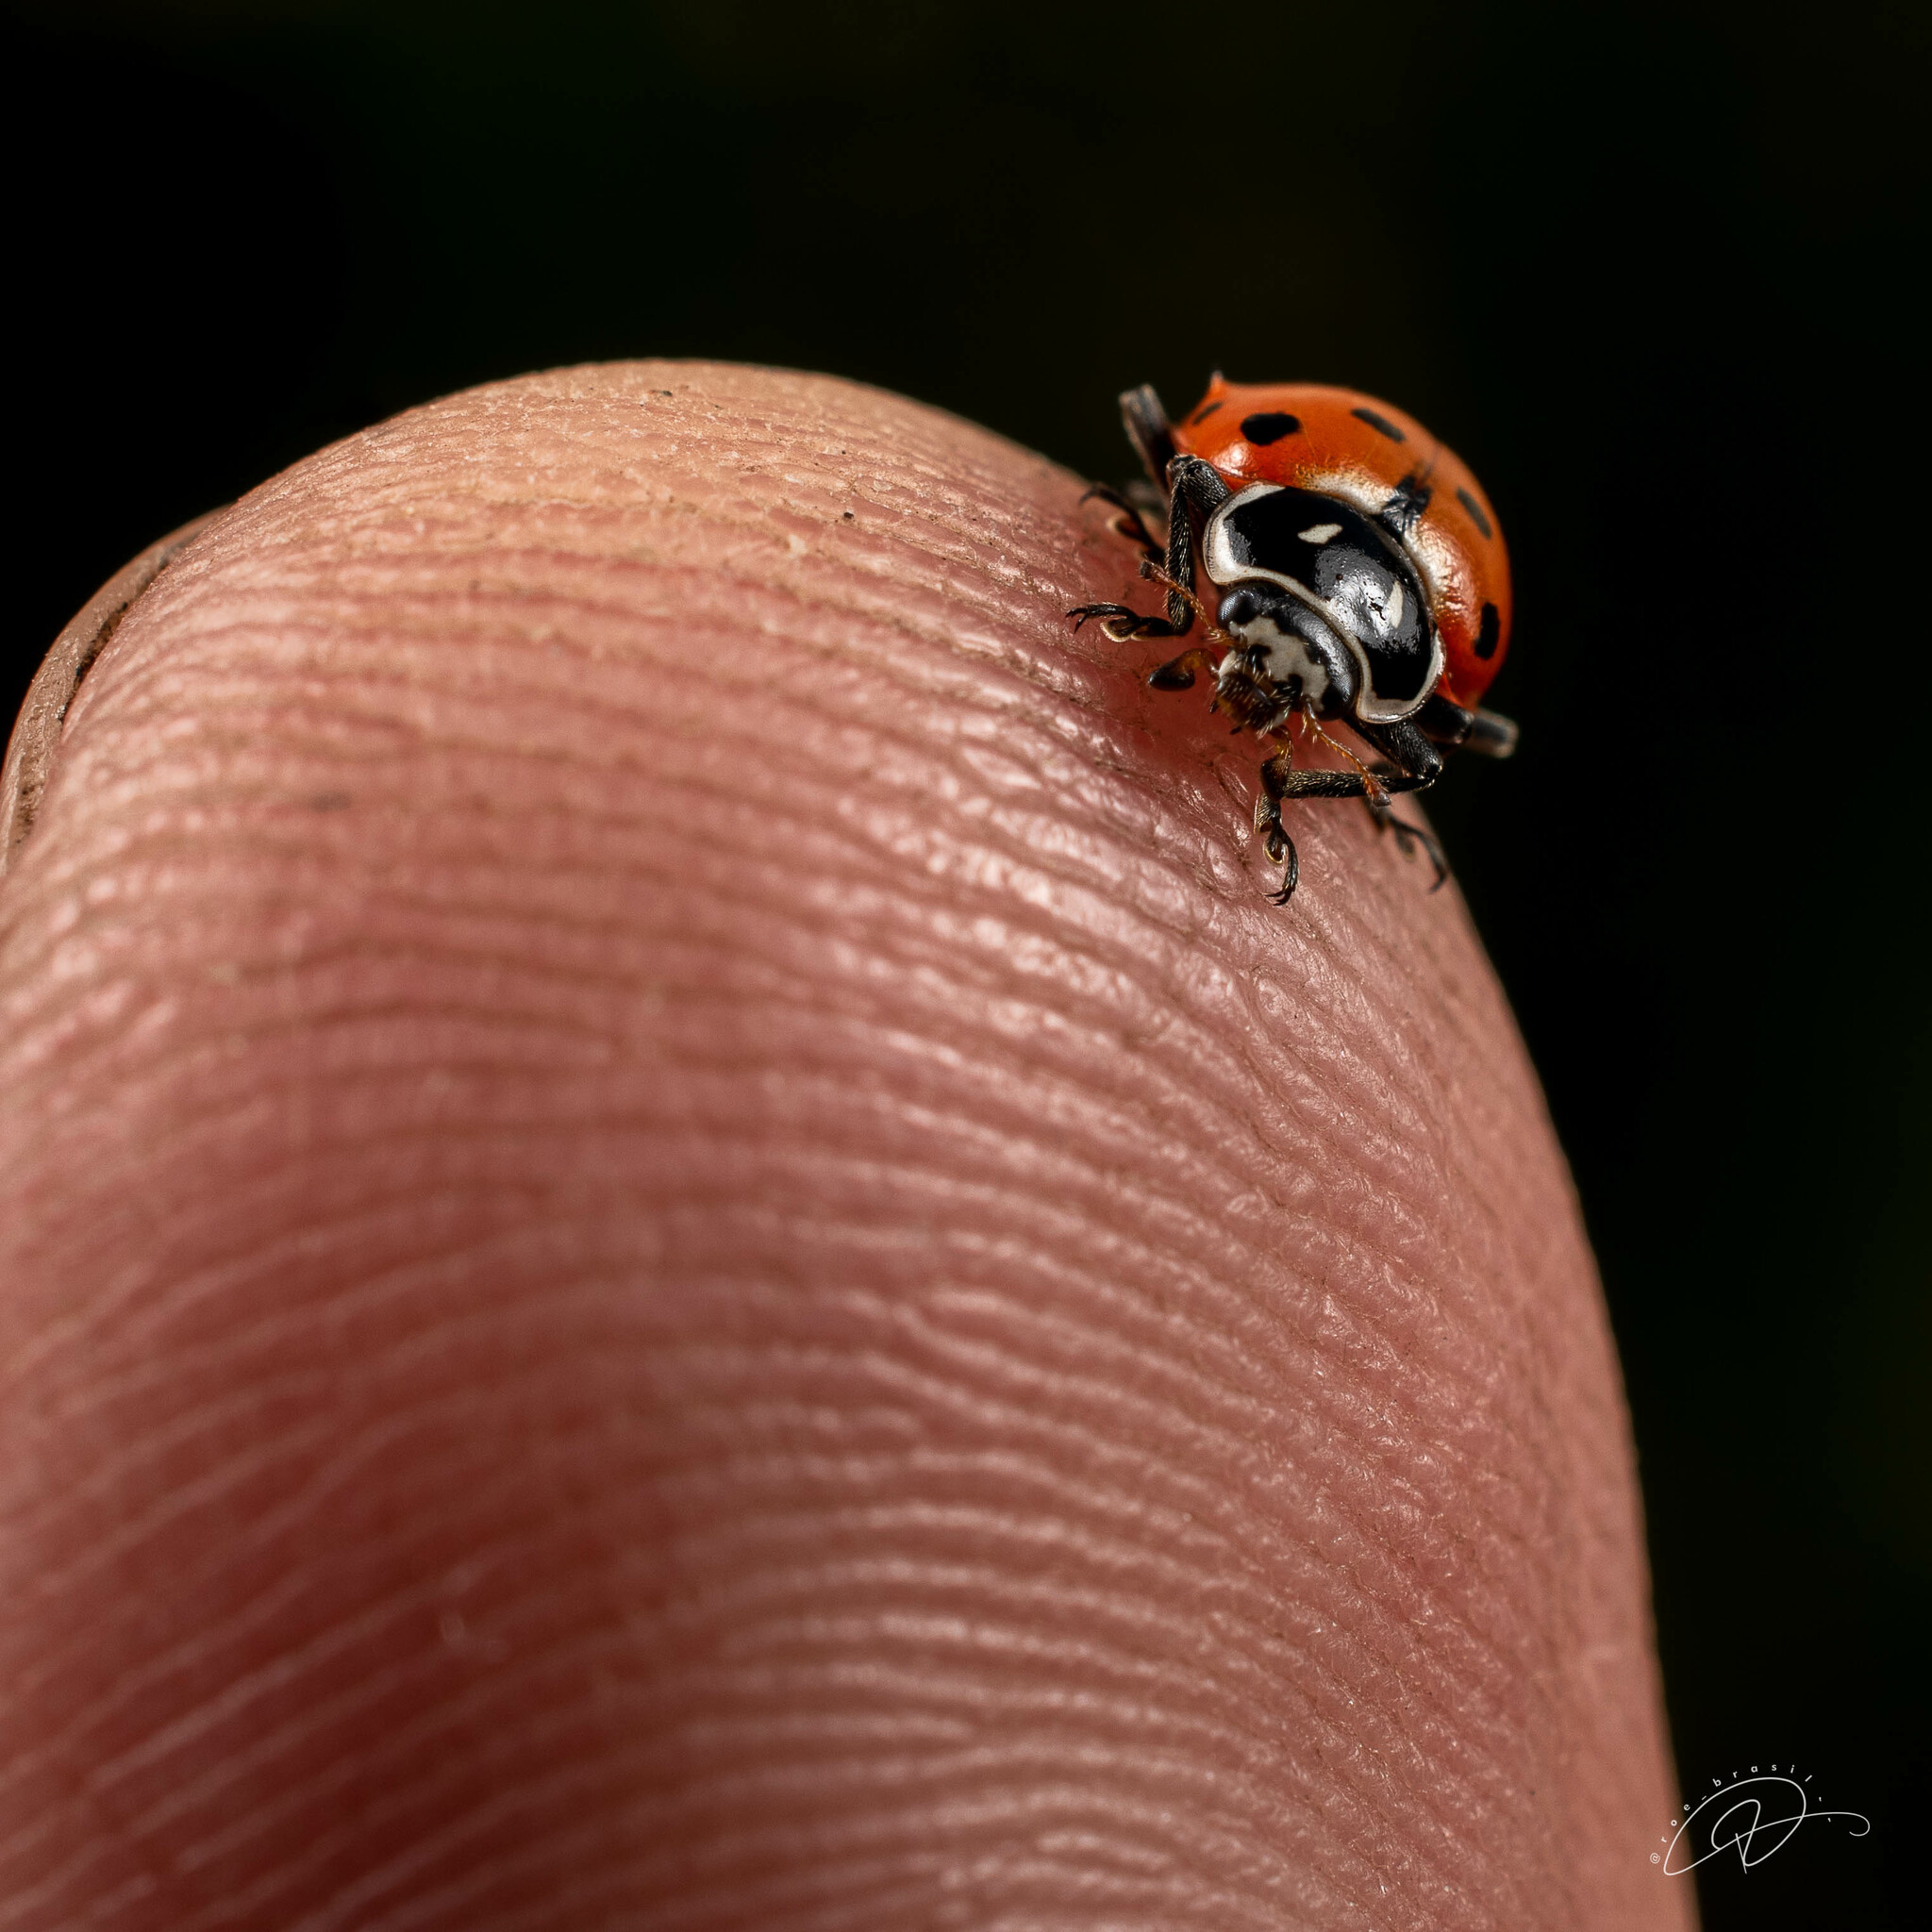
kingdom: Animalia
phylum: Arthropoda
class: Insecta
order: Coleoptera
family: Coccinellidae
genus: Hippodamia
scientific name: Hippodamia convergens
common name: Convergent lady beetle
